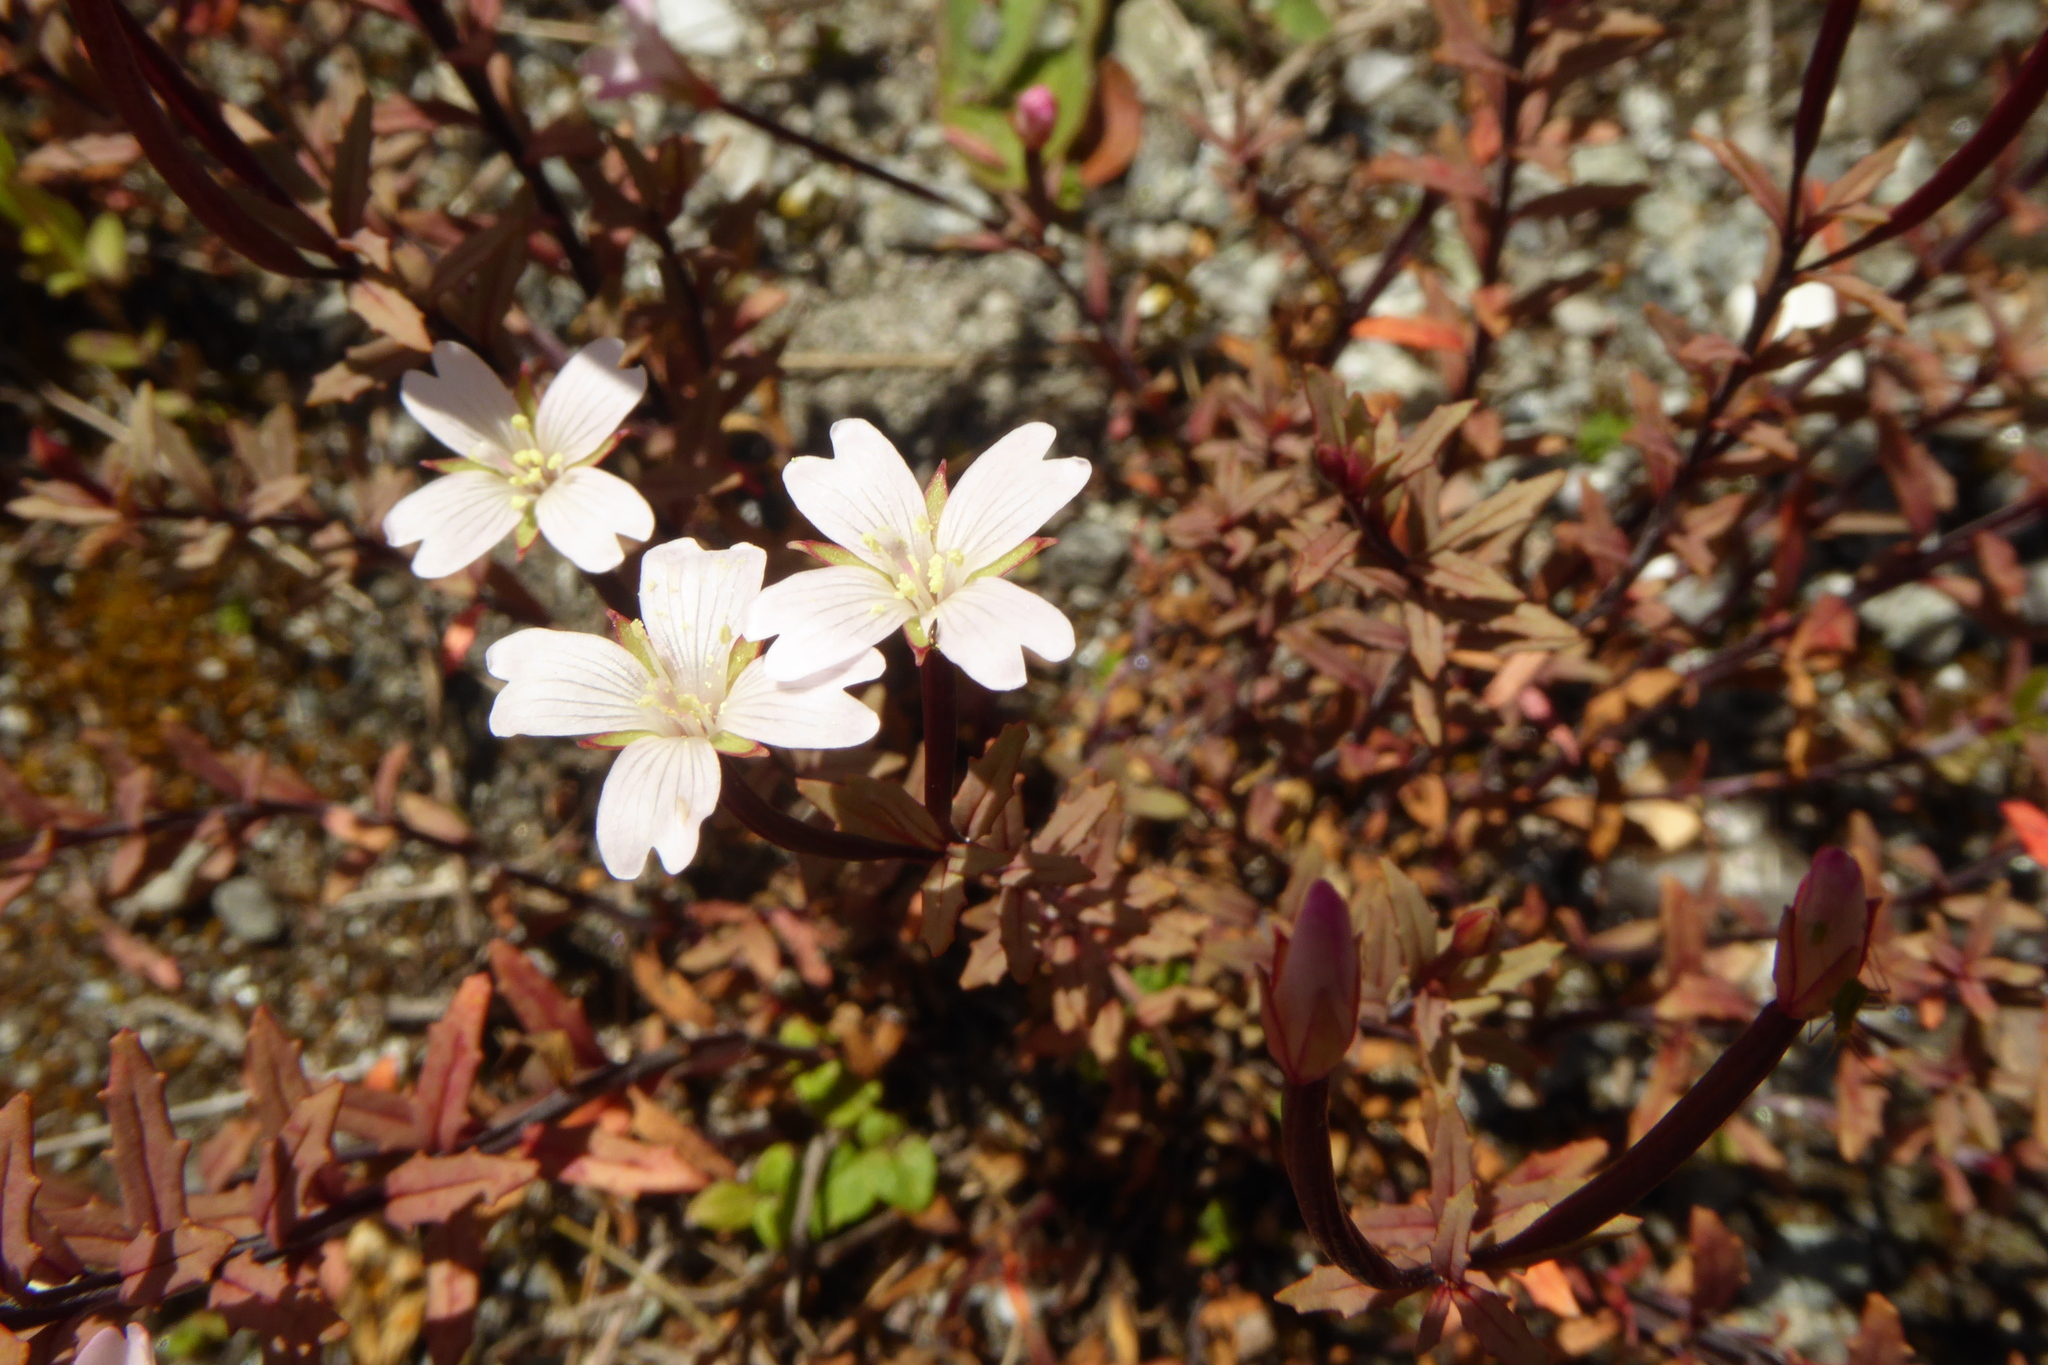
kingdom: Plantae
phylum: Tracheophyta
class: Magnoliopsida
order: Myrtales
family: Onagraceae
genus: Epilobium
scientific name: Epilobium melanocaulon
